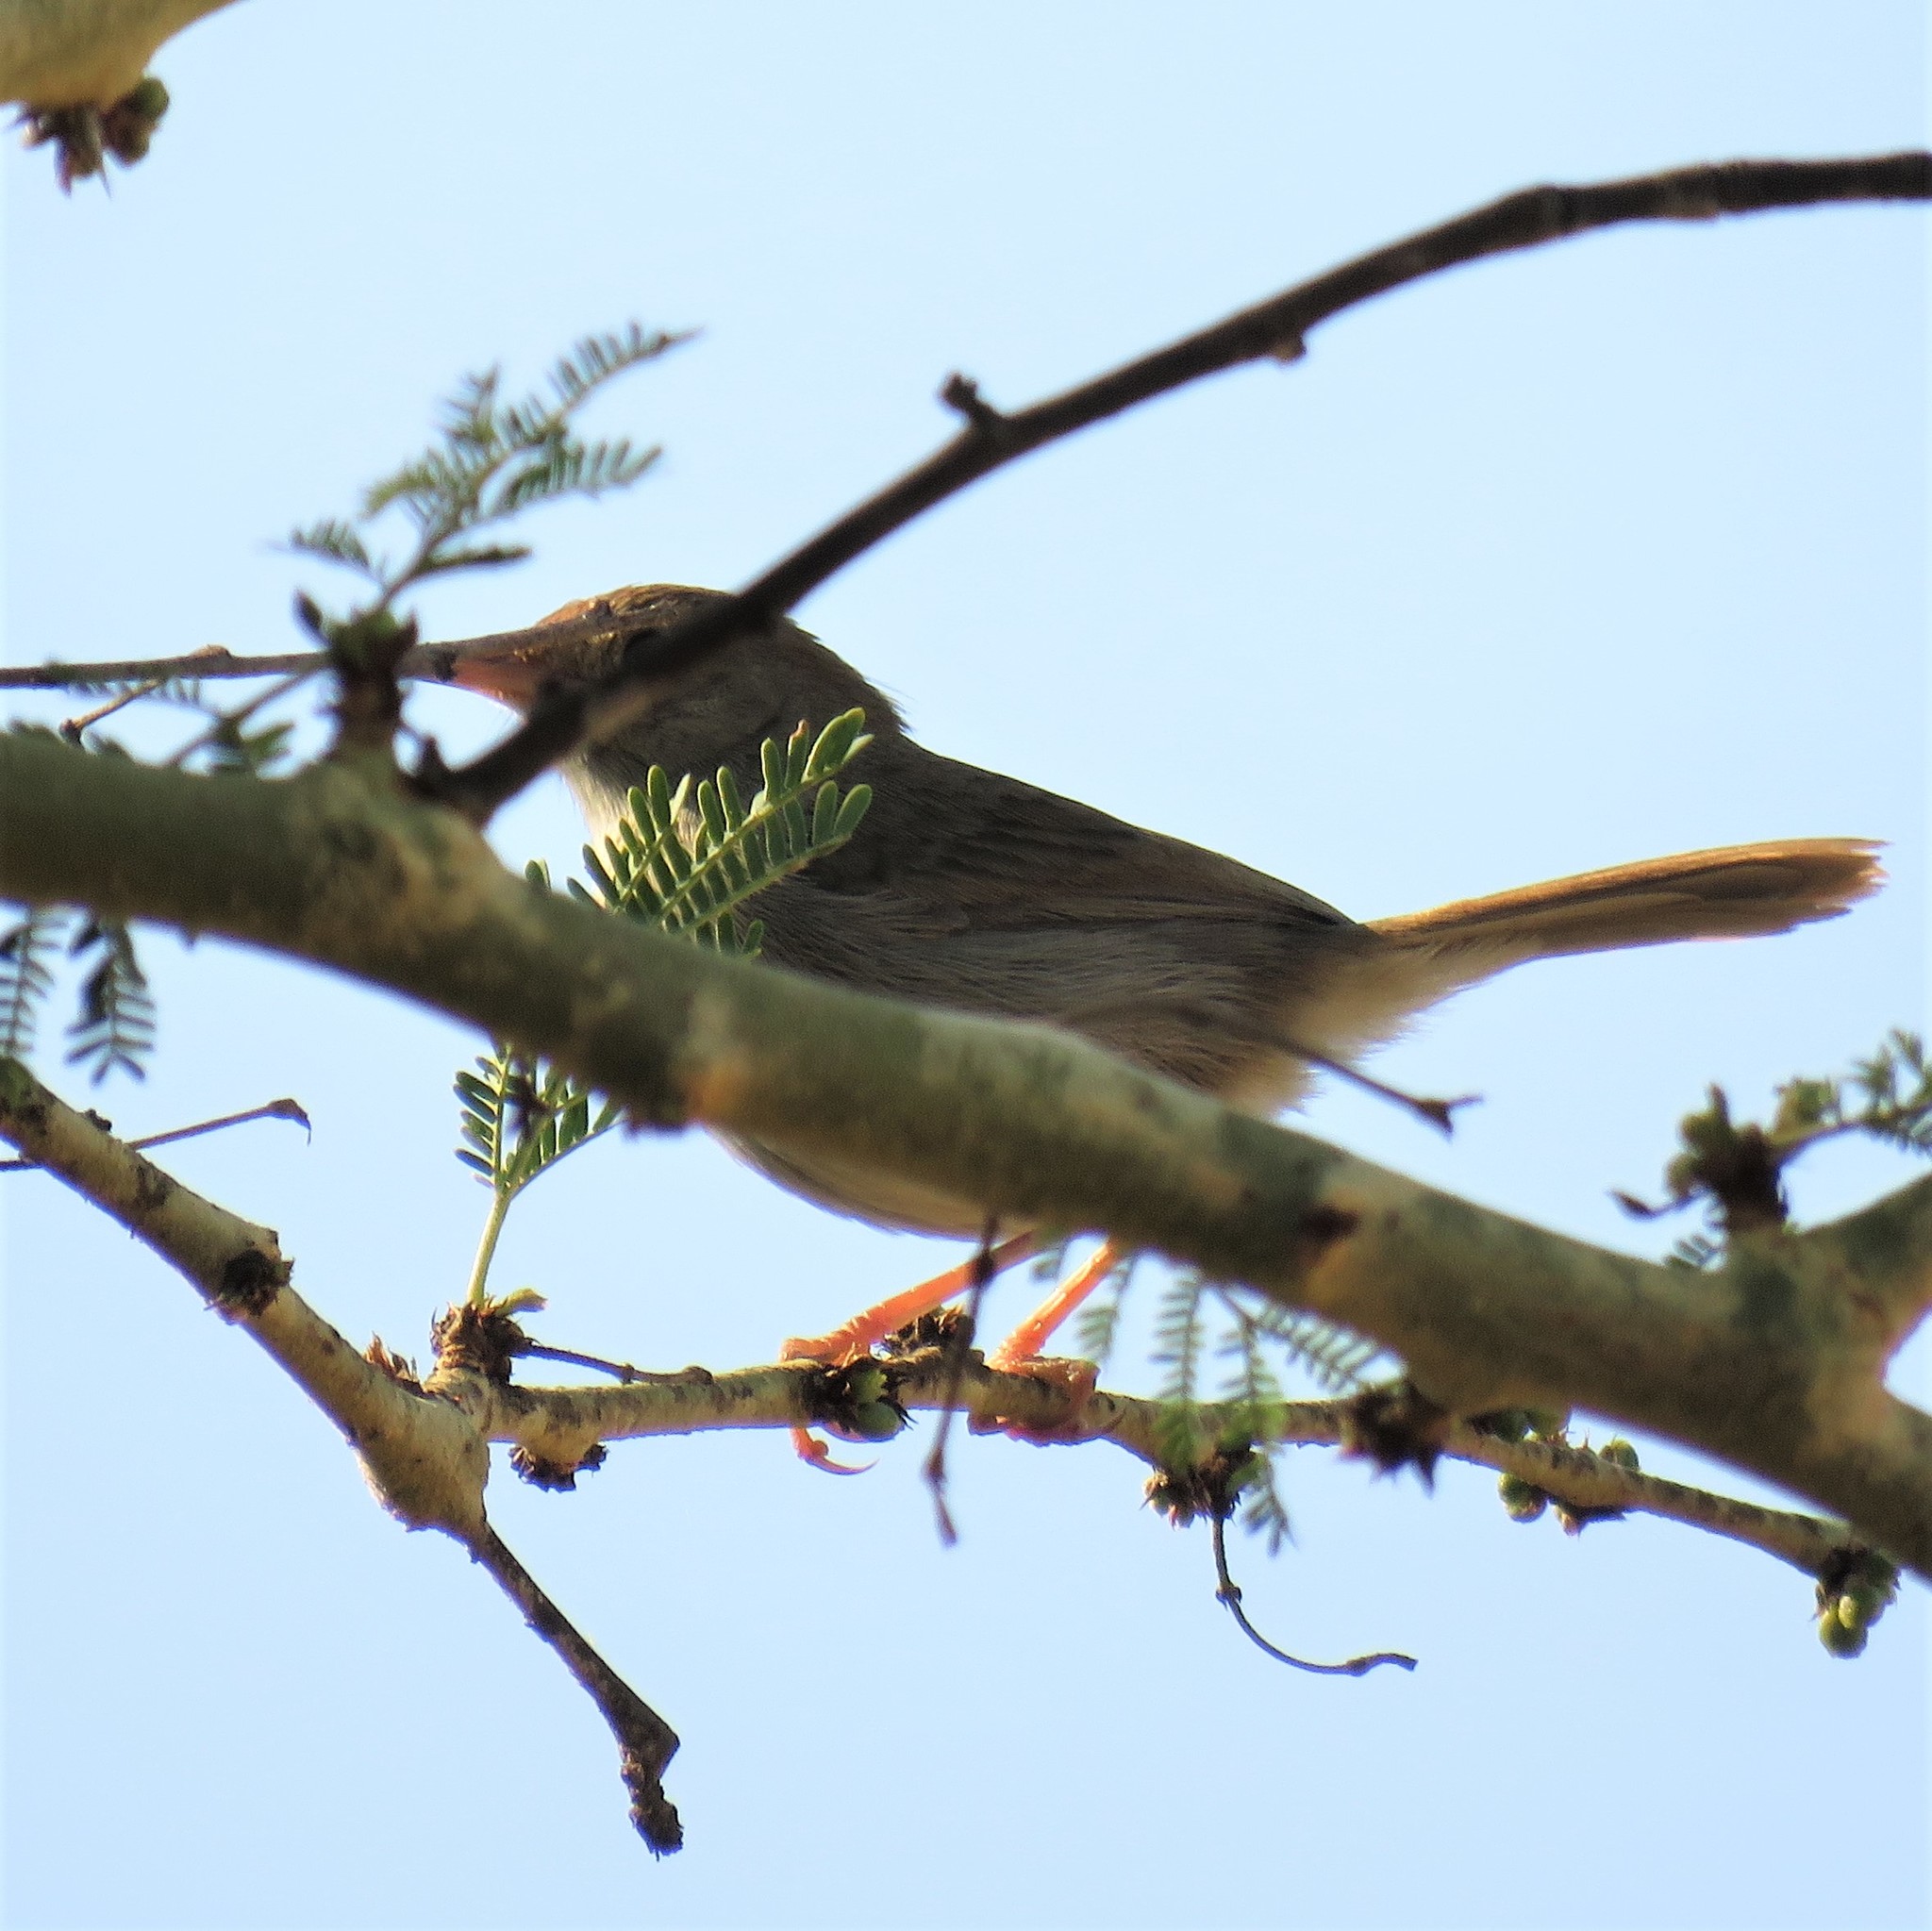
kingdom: Animalia
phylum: Chordata
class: Aves
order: Passeriformes
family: Cisticolidae
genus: Cisticola
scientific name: Cisticola fulvicapilla
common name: Neddicky
